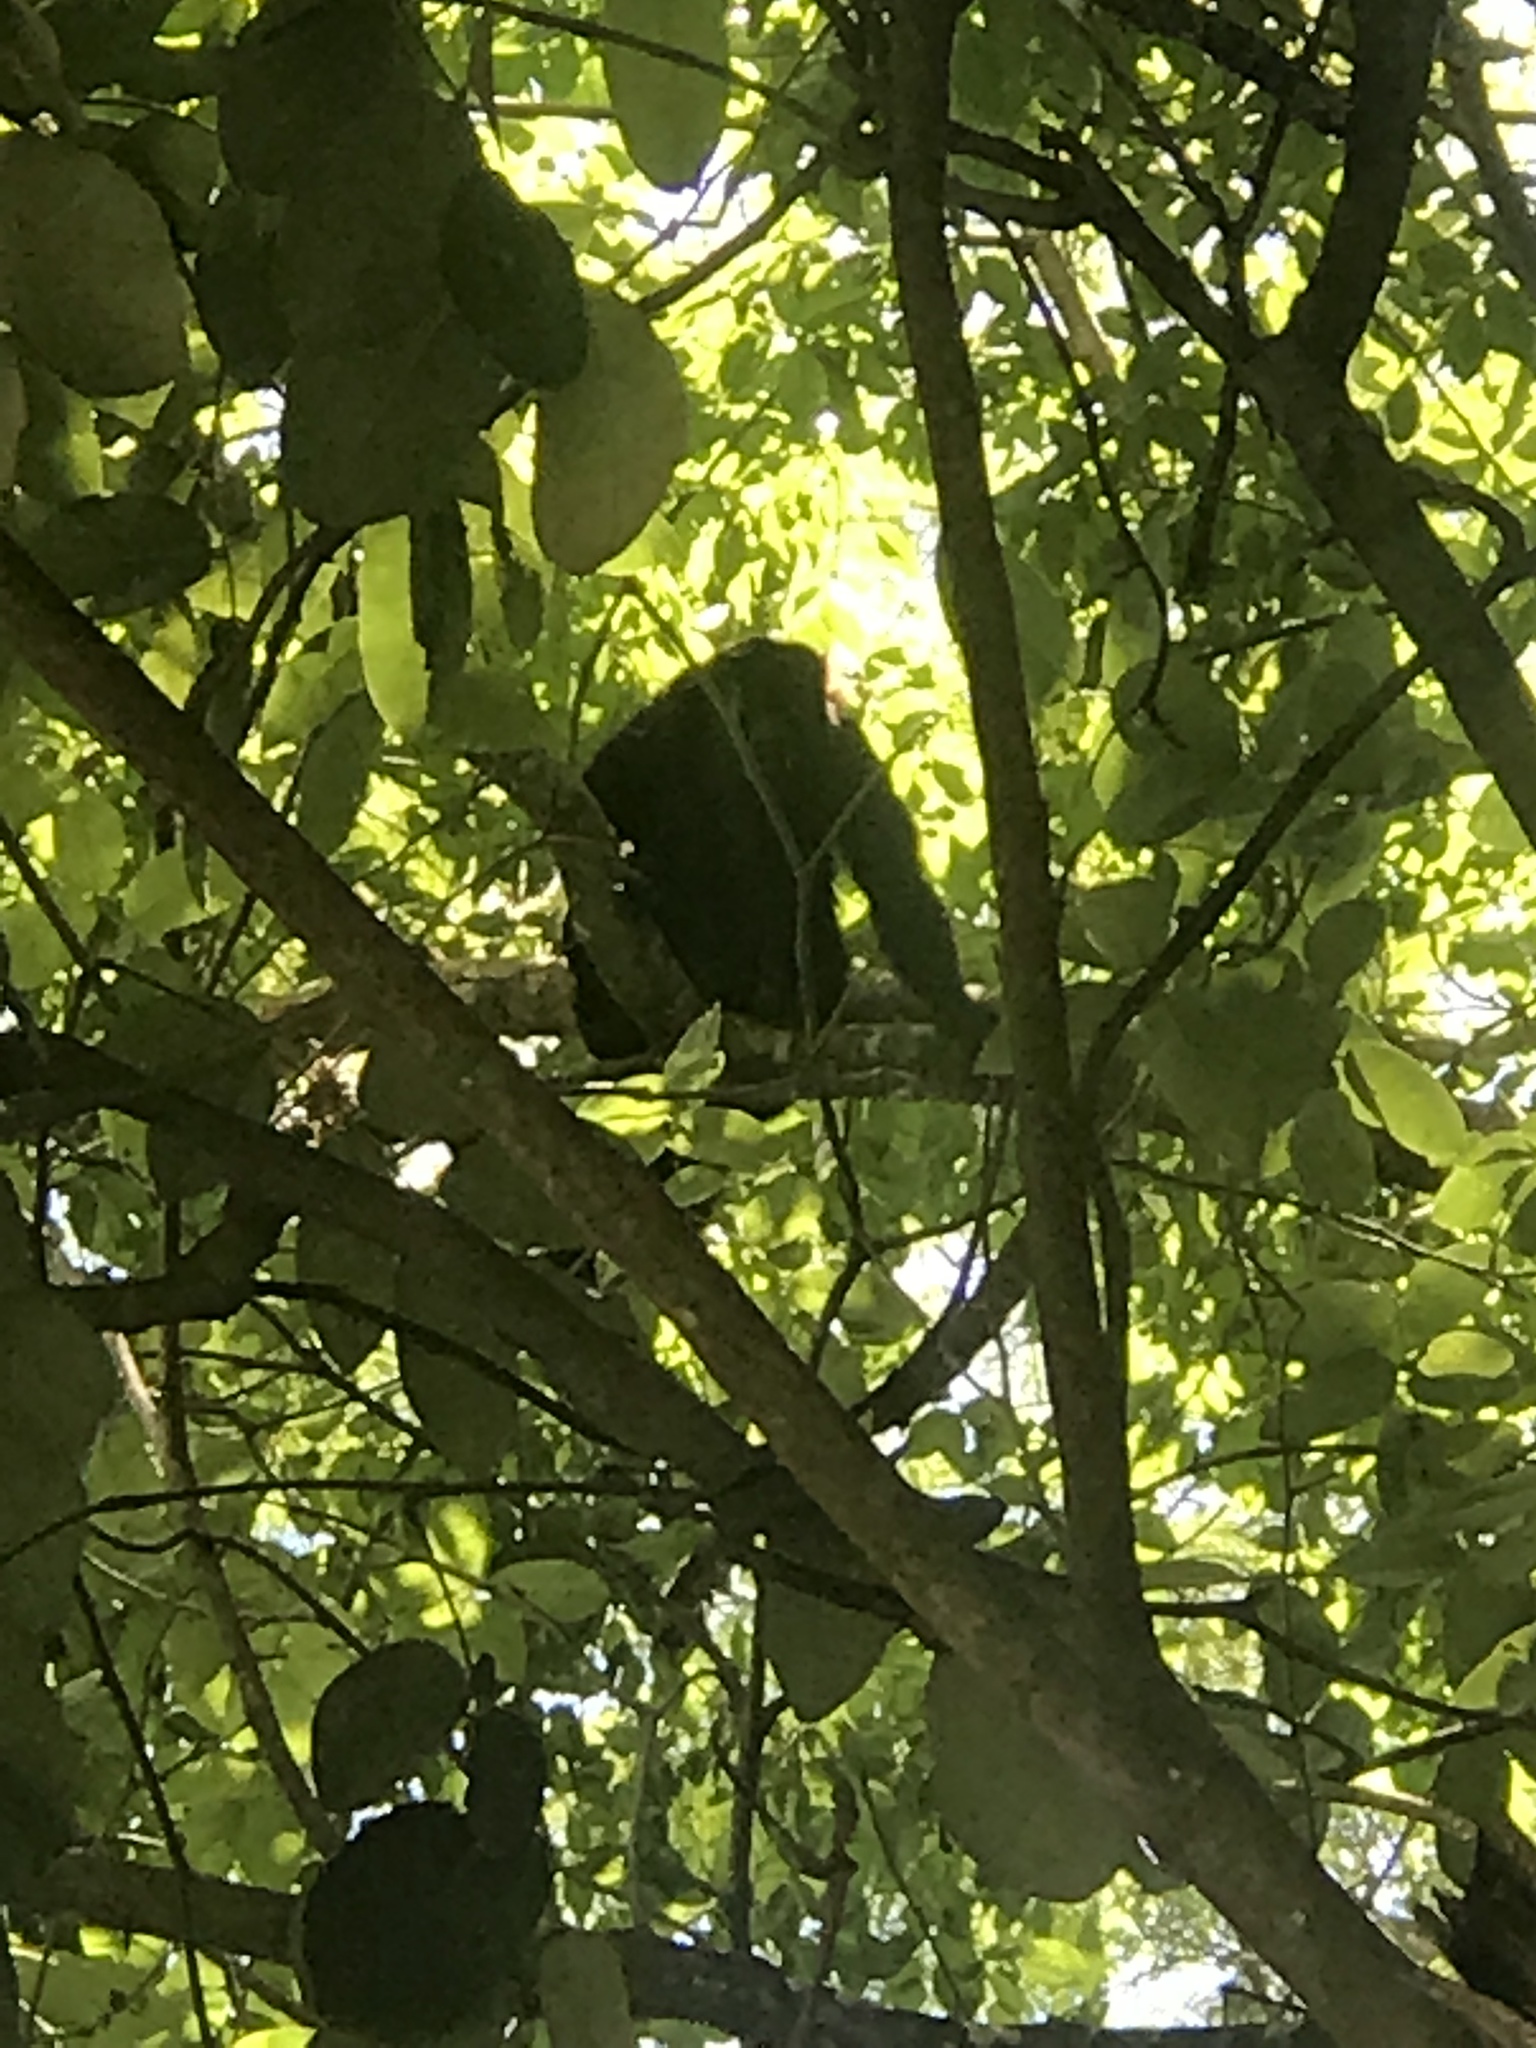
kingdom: Animalia
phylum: Chordata
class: Mammalia
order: Primates
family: Atelidae
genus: Alouatta
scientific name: Alouatta pigra
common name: Guatemalan black howler
